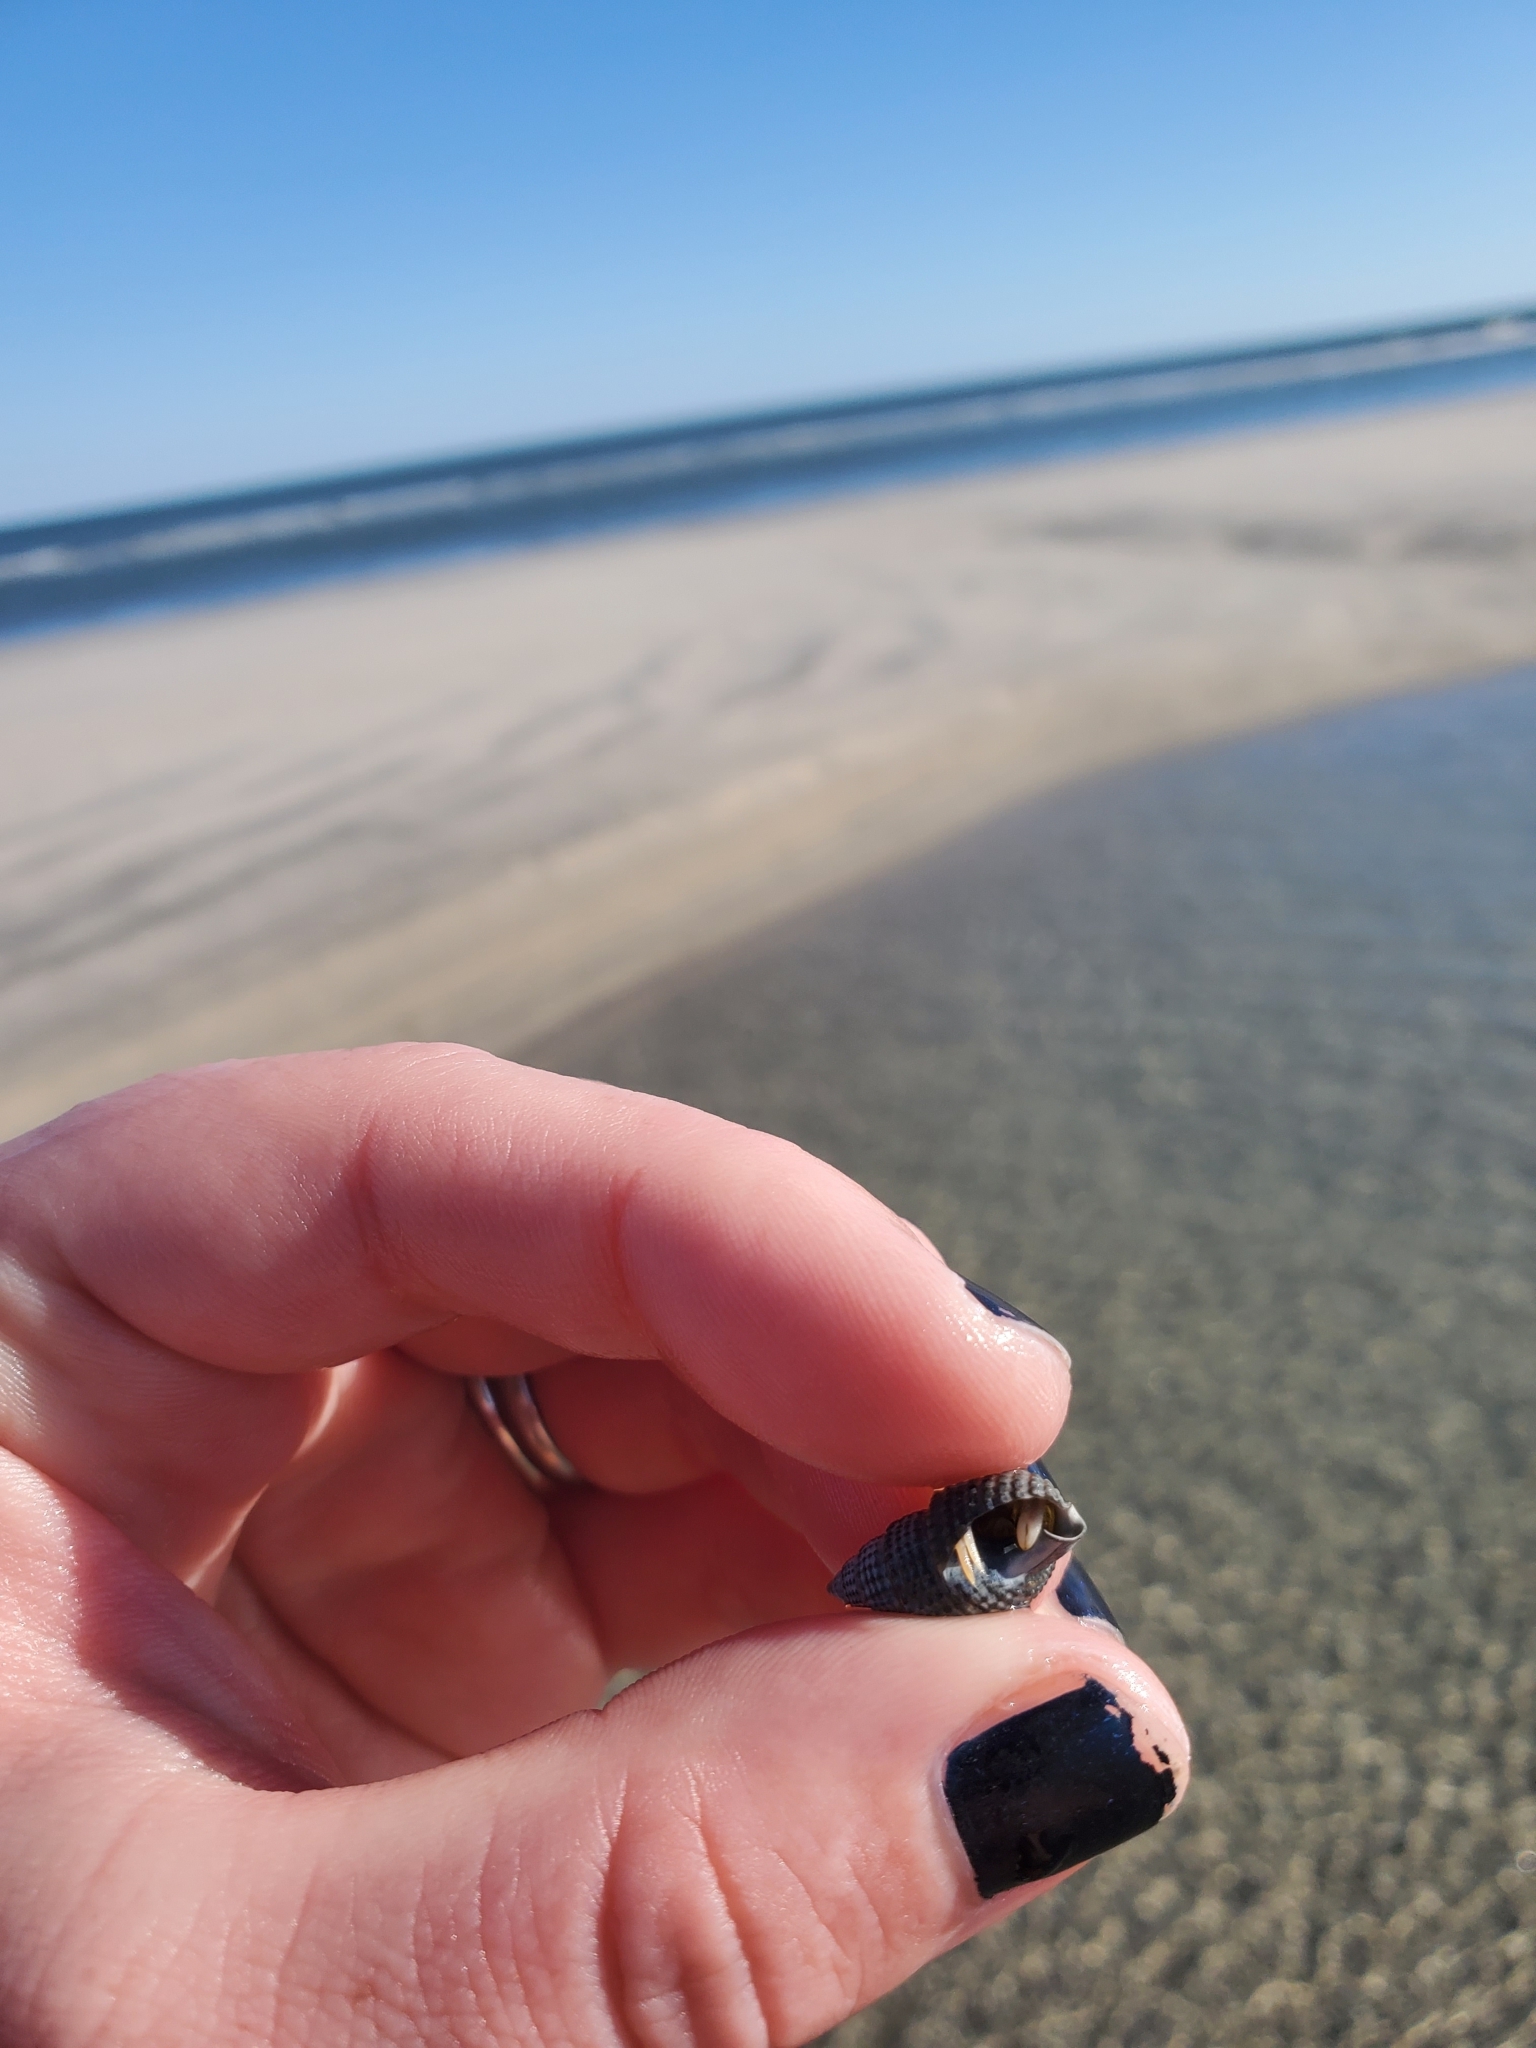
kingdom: Animalia
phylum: Mollusca
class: Gastropoda
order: Neogastropoda
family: Nassariidae
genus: Ilyanassa
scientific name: Ilyanassa trivittata
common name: Three-line mudsnail
